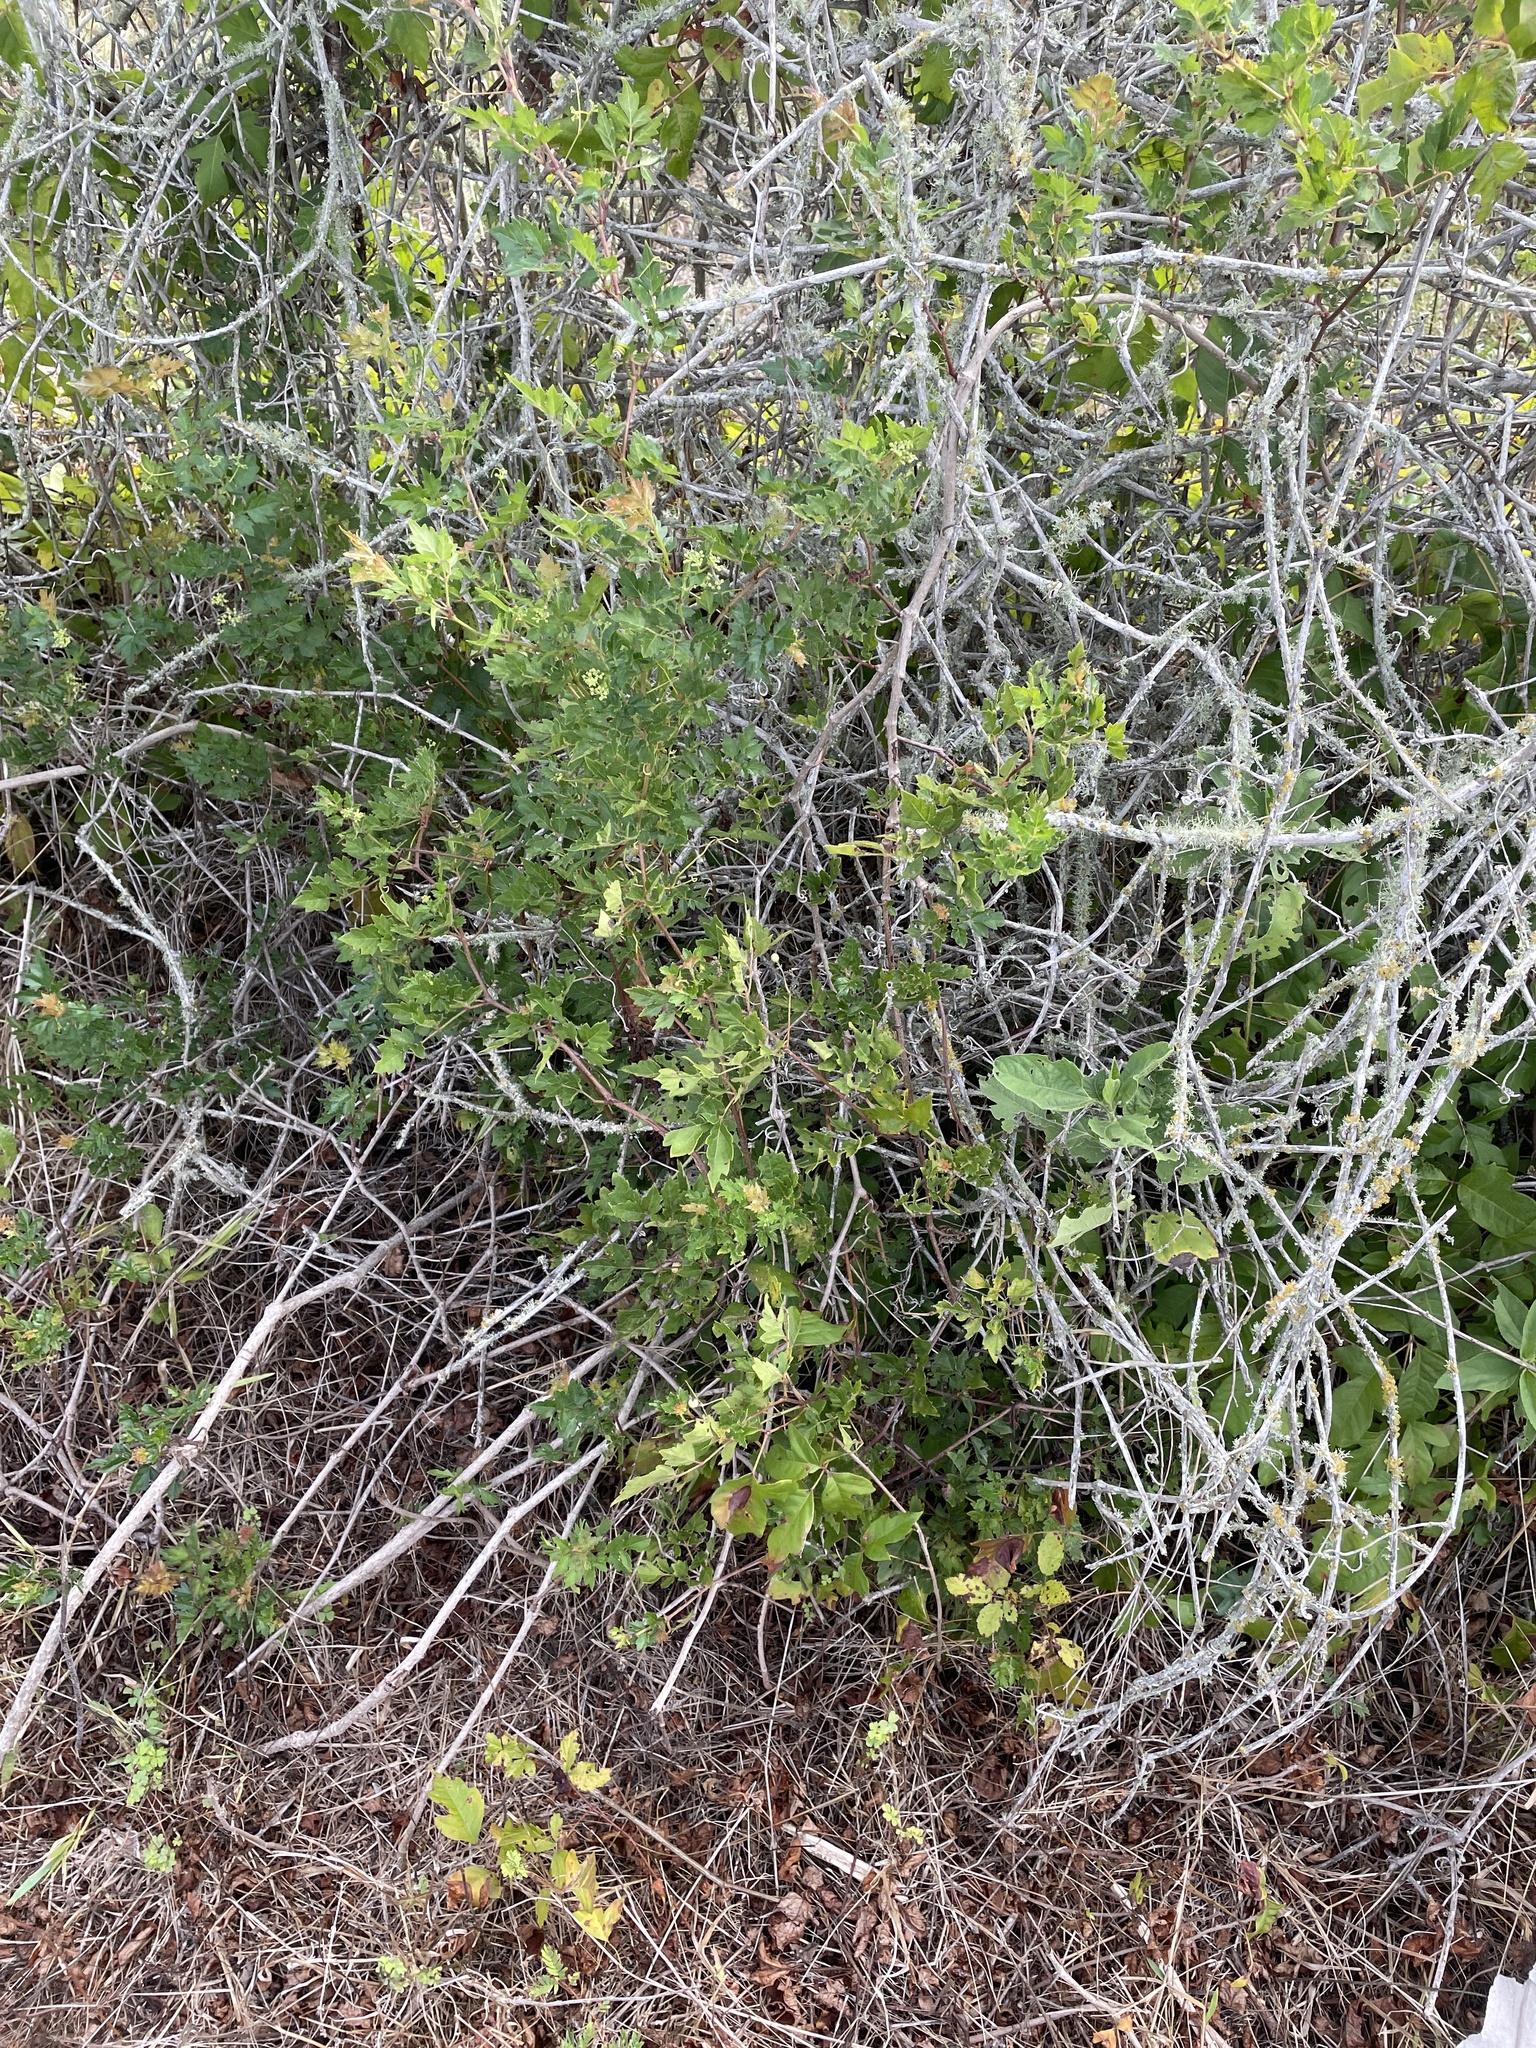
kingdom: Plantae
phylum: Tracheophyta
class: Magnoliopsida
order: Vitales
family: Vitaceae
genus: Nekemias
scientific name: Nekemias arborea
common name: Peppervine
